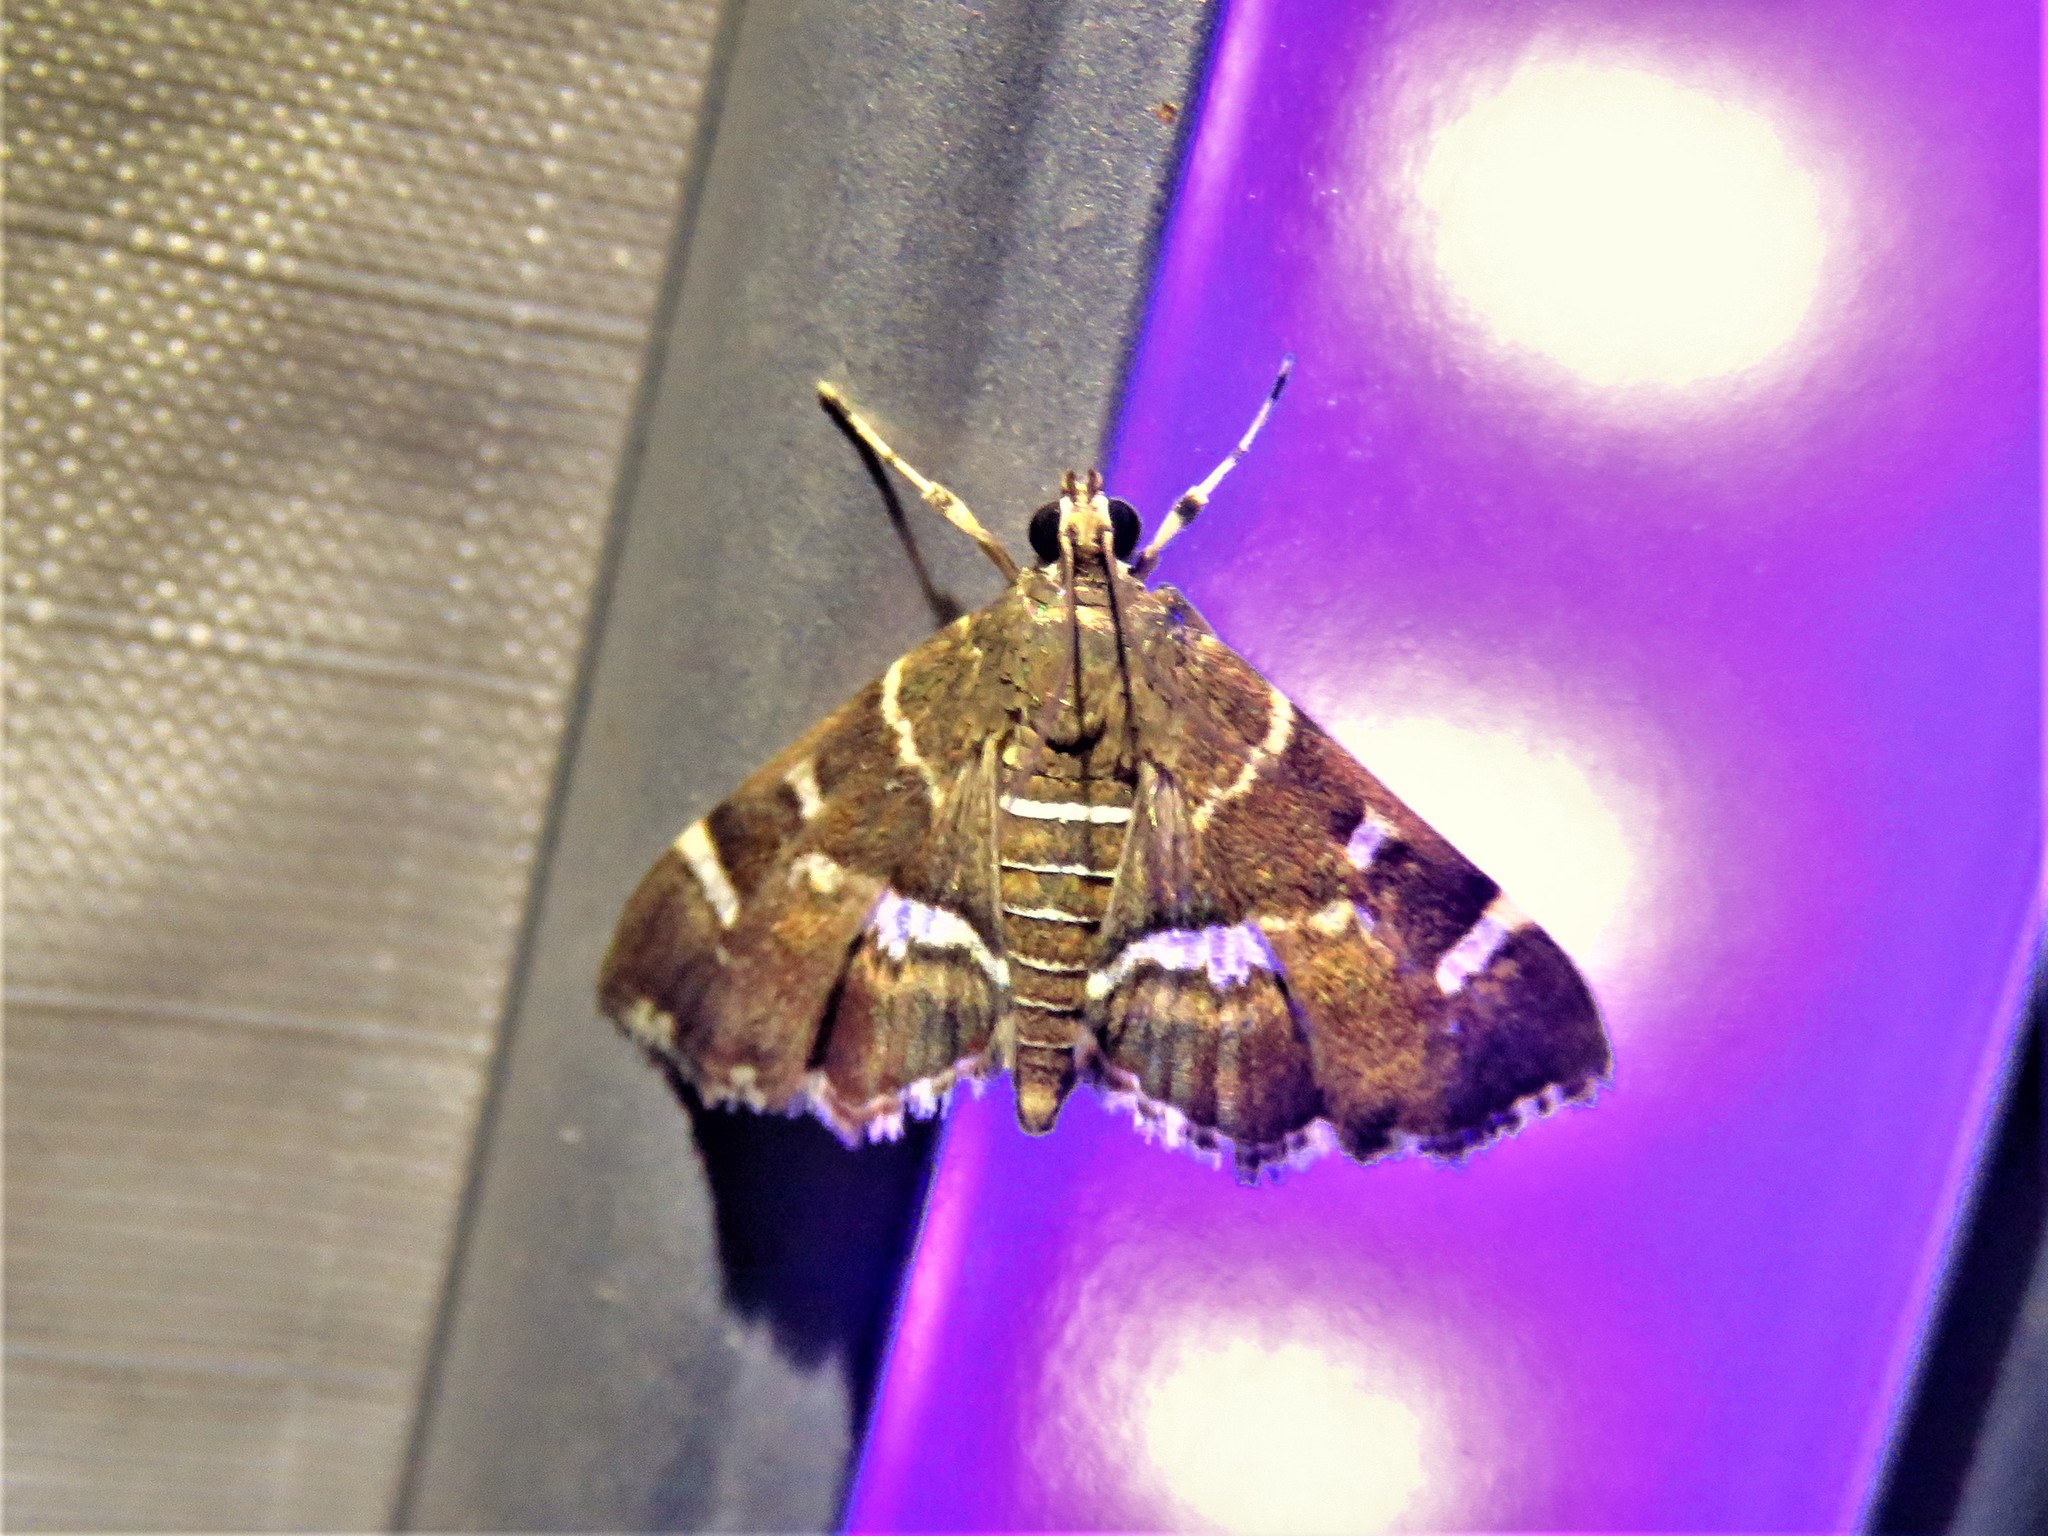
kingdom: Animalia
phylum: Arthropoda
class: Insecta
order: Lepidoptera
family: Crambidae
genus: Hymenia
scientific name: Hymenia perspectalis
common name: Spotted beet webworm
